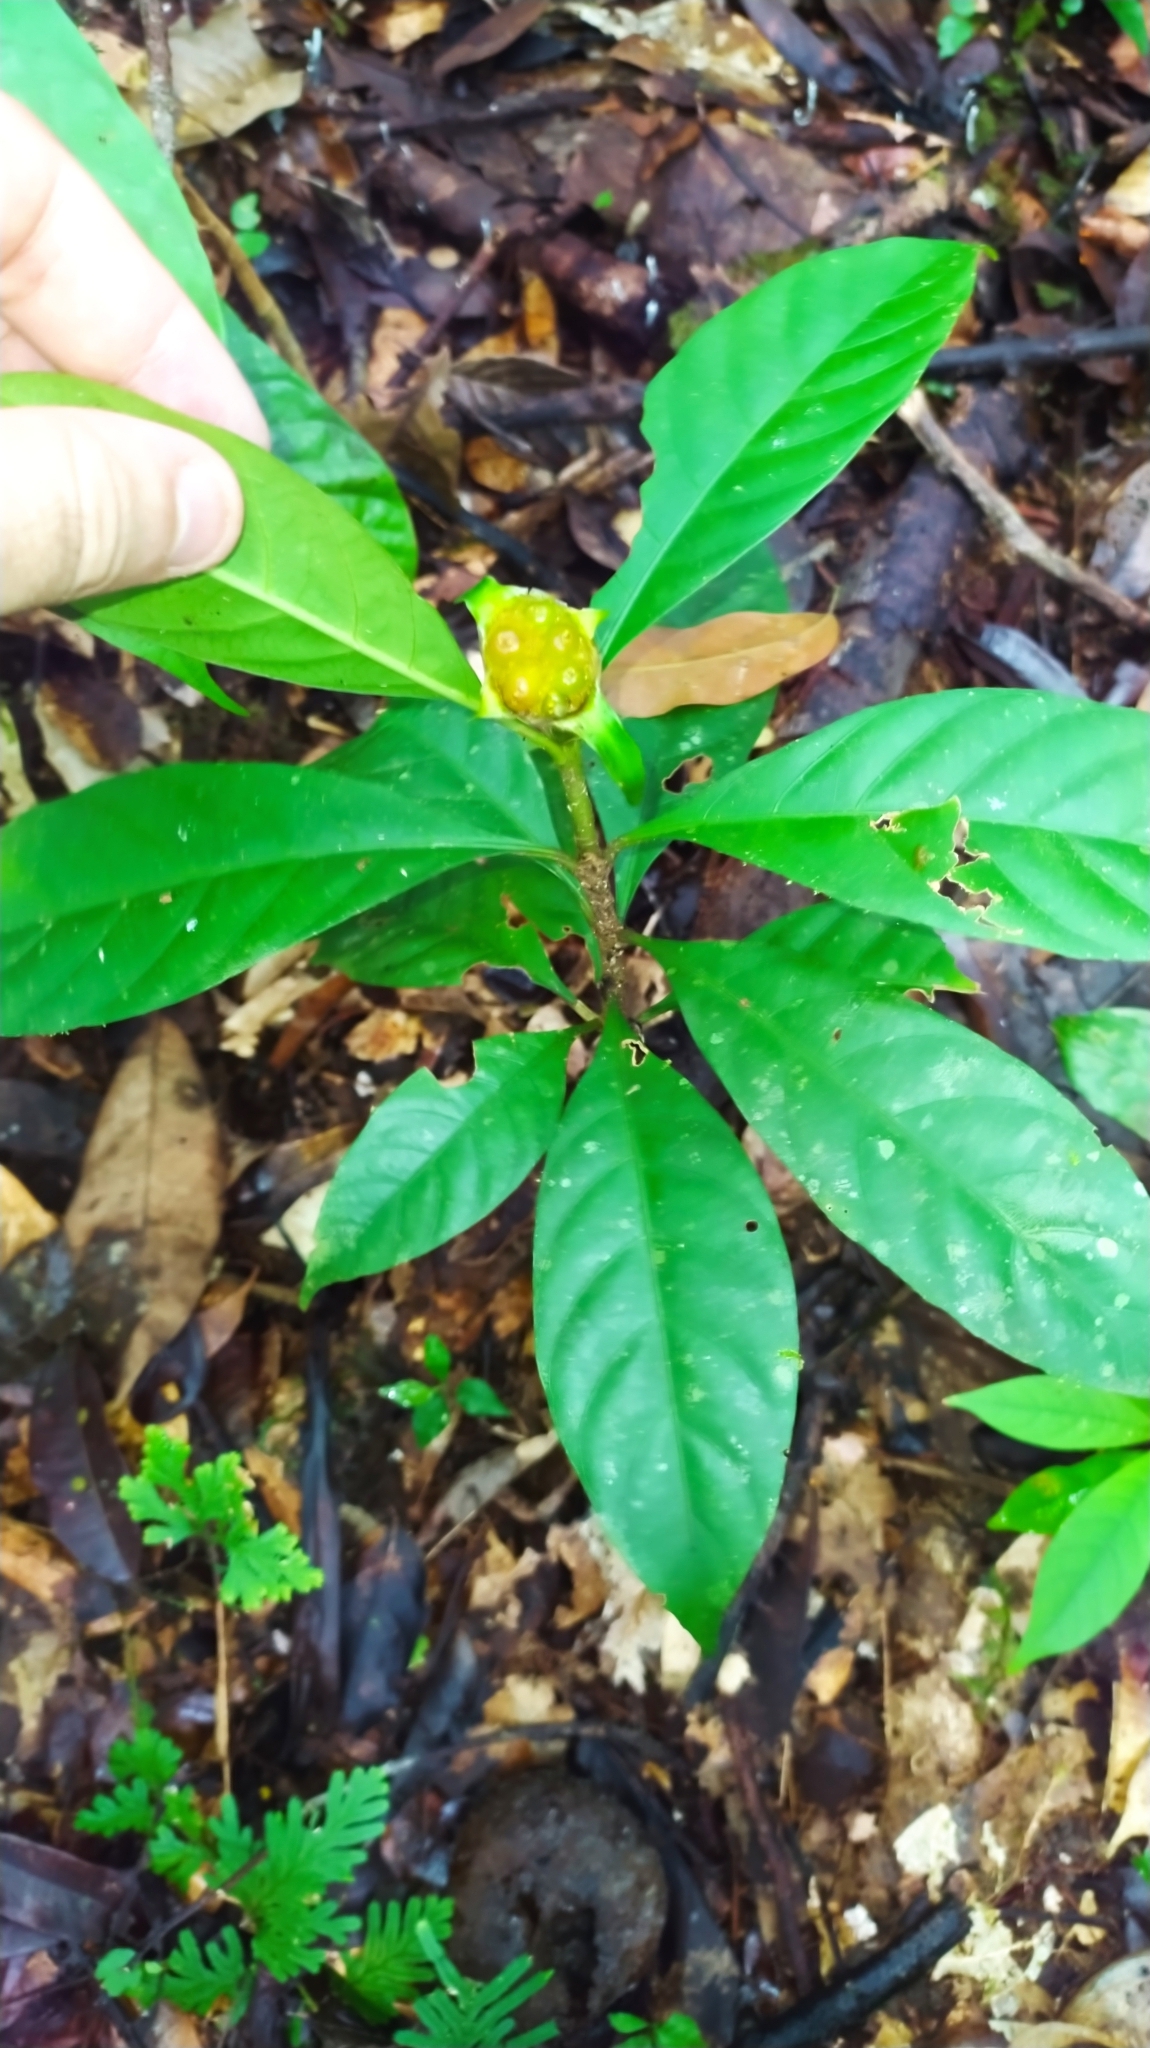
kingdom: Plantae
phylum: Tracheophyta
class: Magnoliopsida
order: Gentianales
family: Rubiaceae
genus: Carapichea
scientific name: Carapichea guianensis
